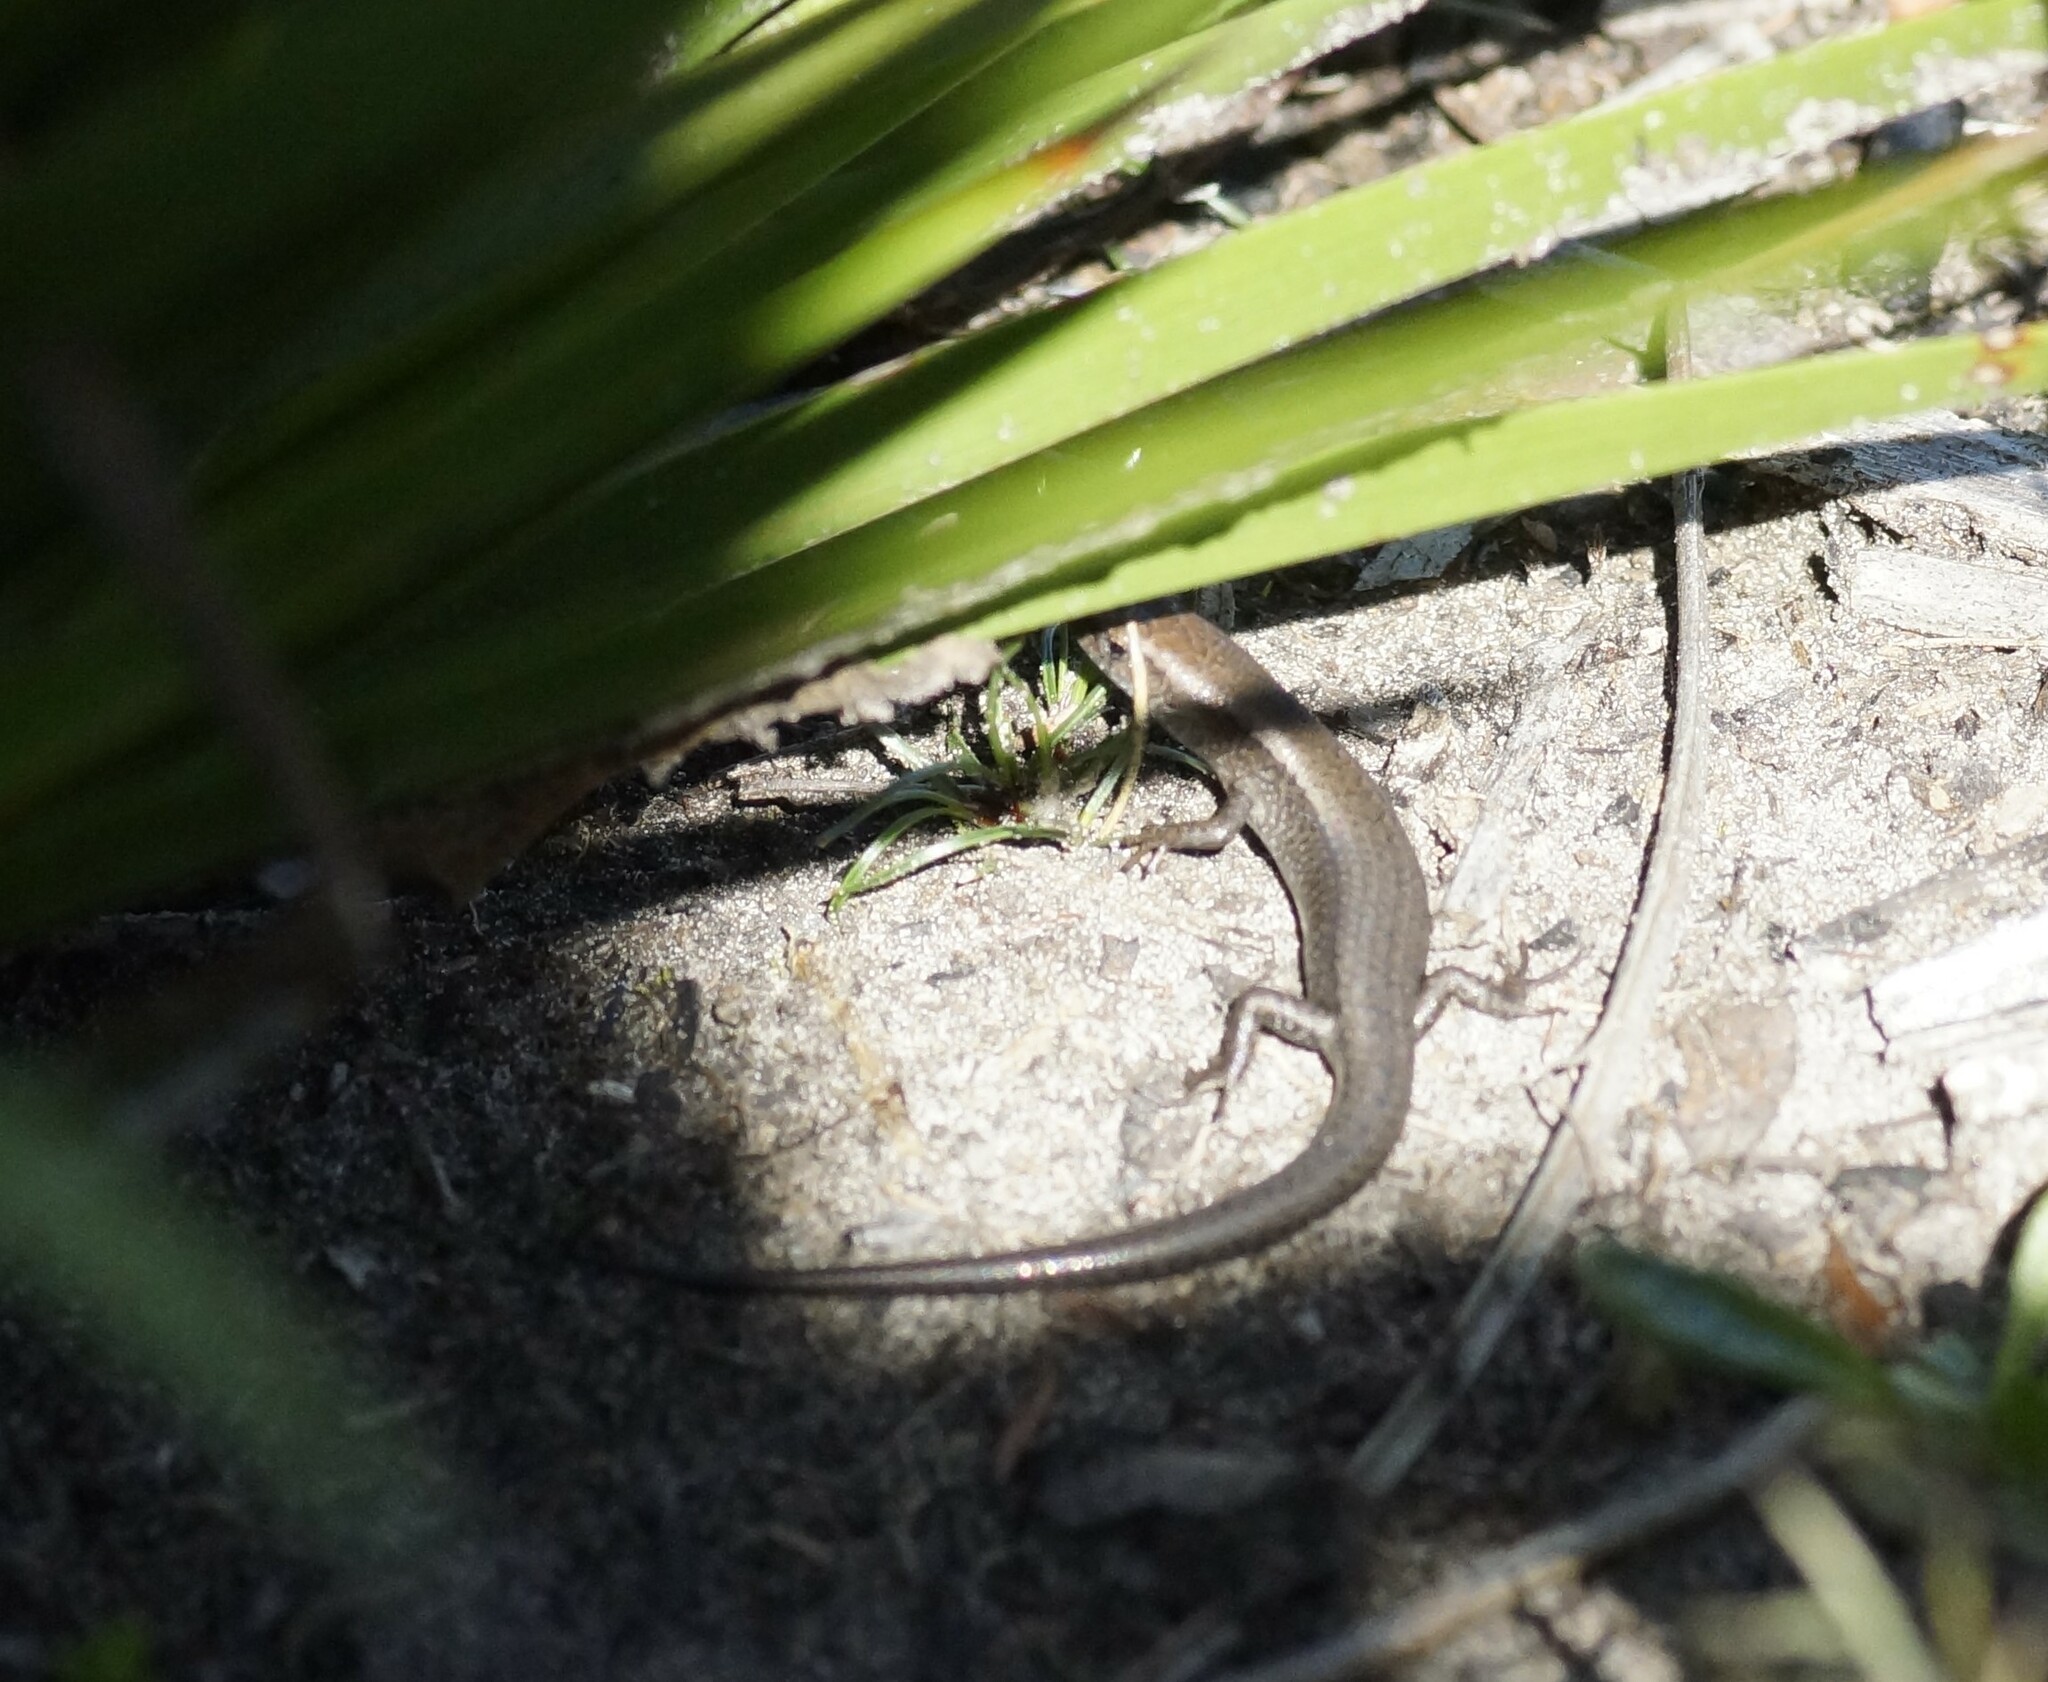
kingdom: Animalia
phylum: Chordata
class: Squamata
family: Scincidae
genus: Lampropholis
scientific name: Lampropholis guichenoti
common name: Garden skink
